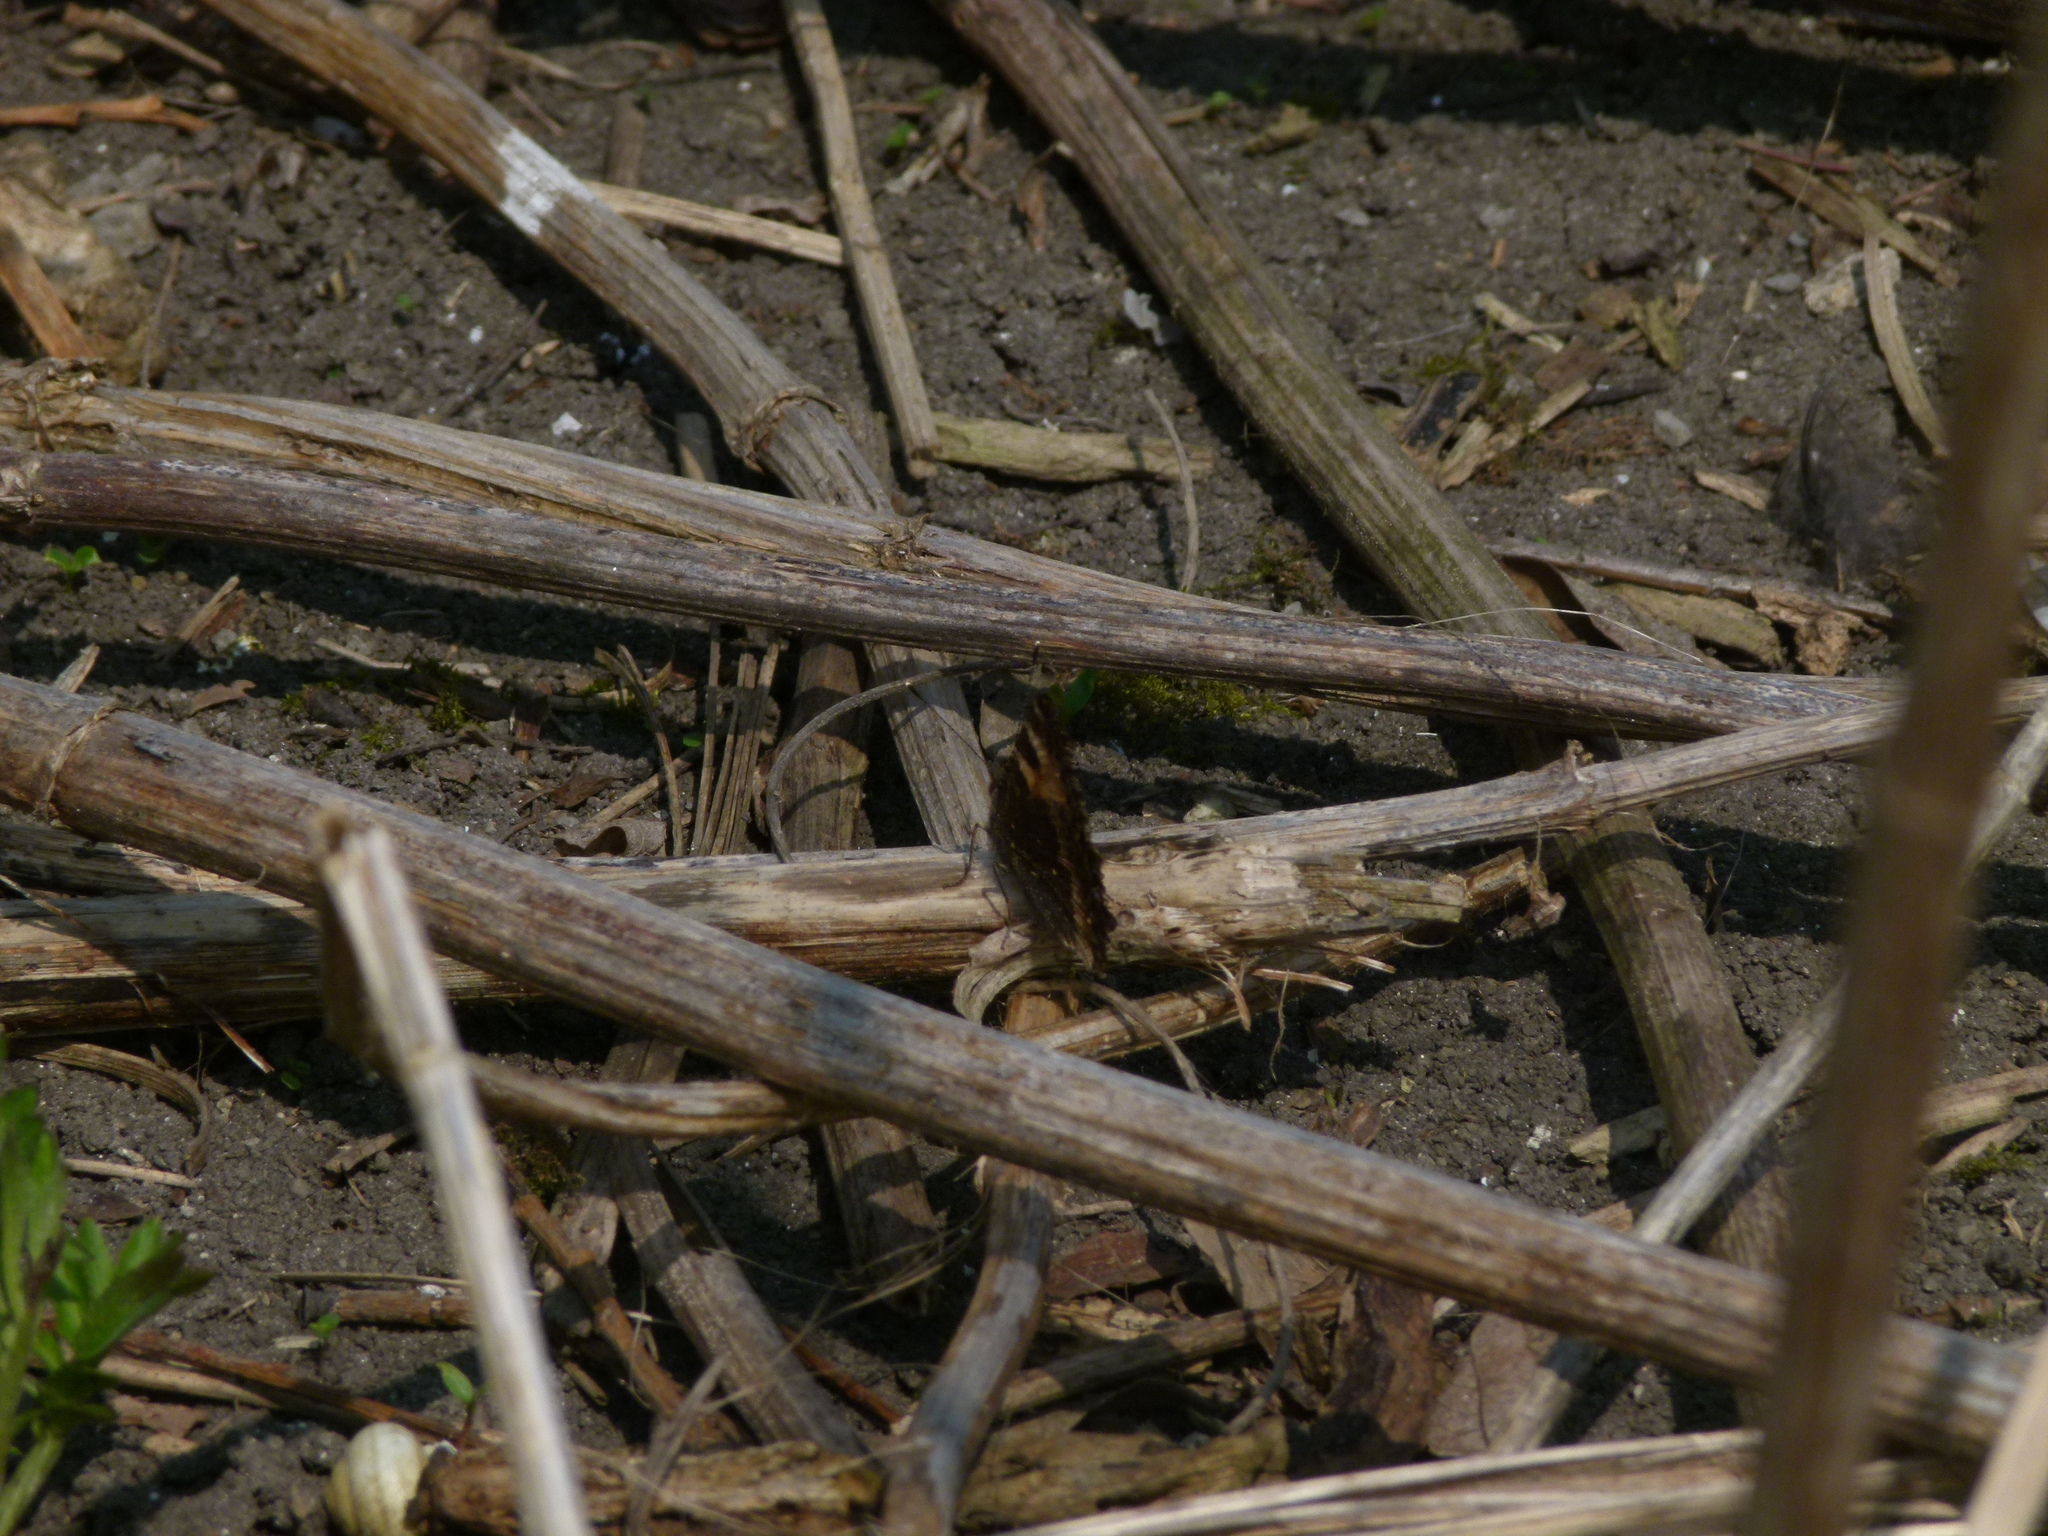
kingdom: Animalia
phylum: Arthropoda
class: Insecta
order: Lepidoptera
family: Nymphalidae
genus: Aglais
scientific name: Aglais urticae
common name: Small tortoiseshell
